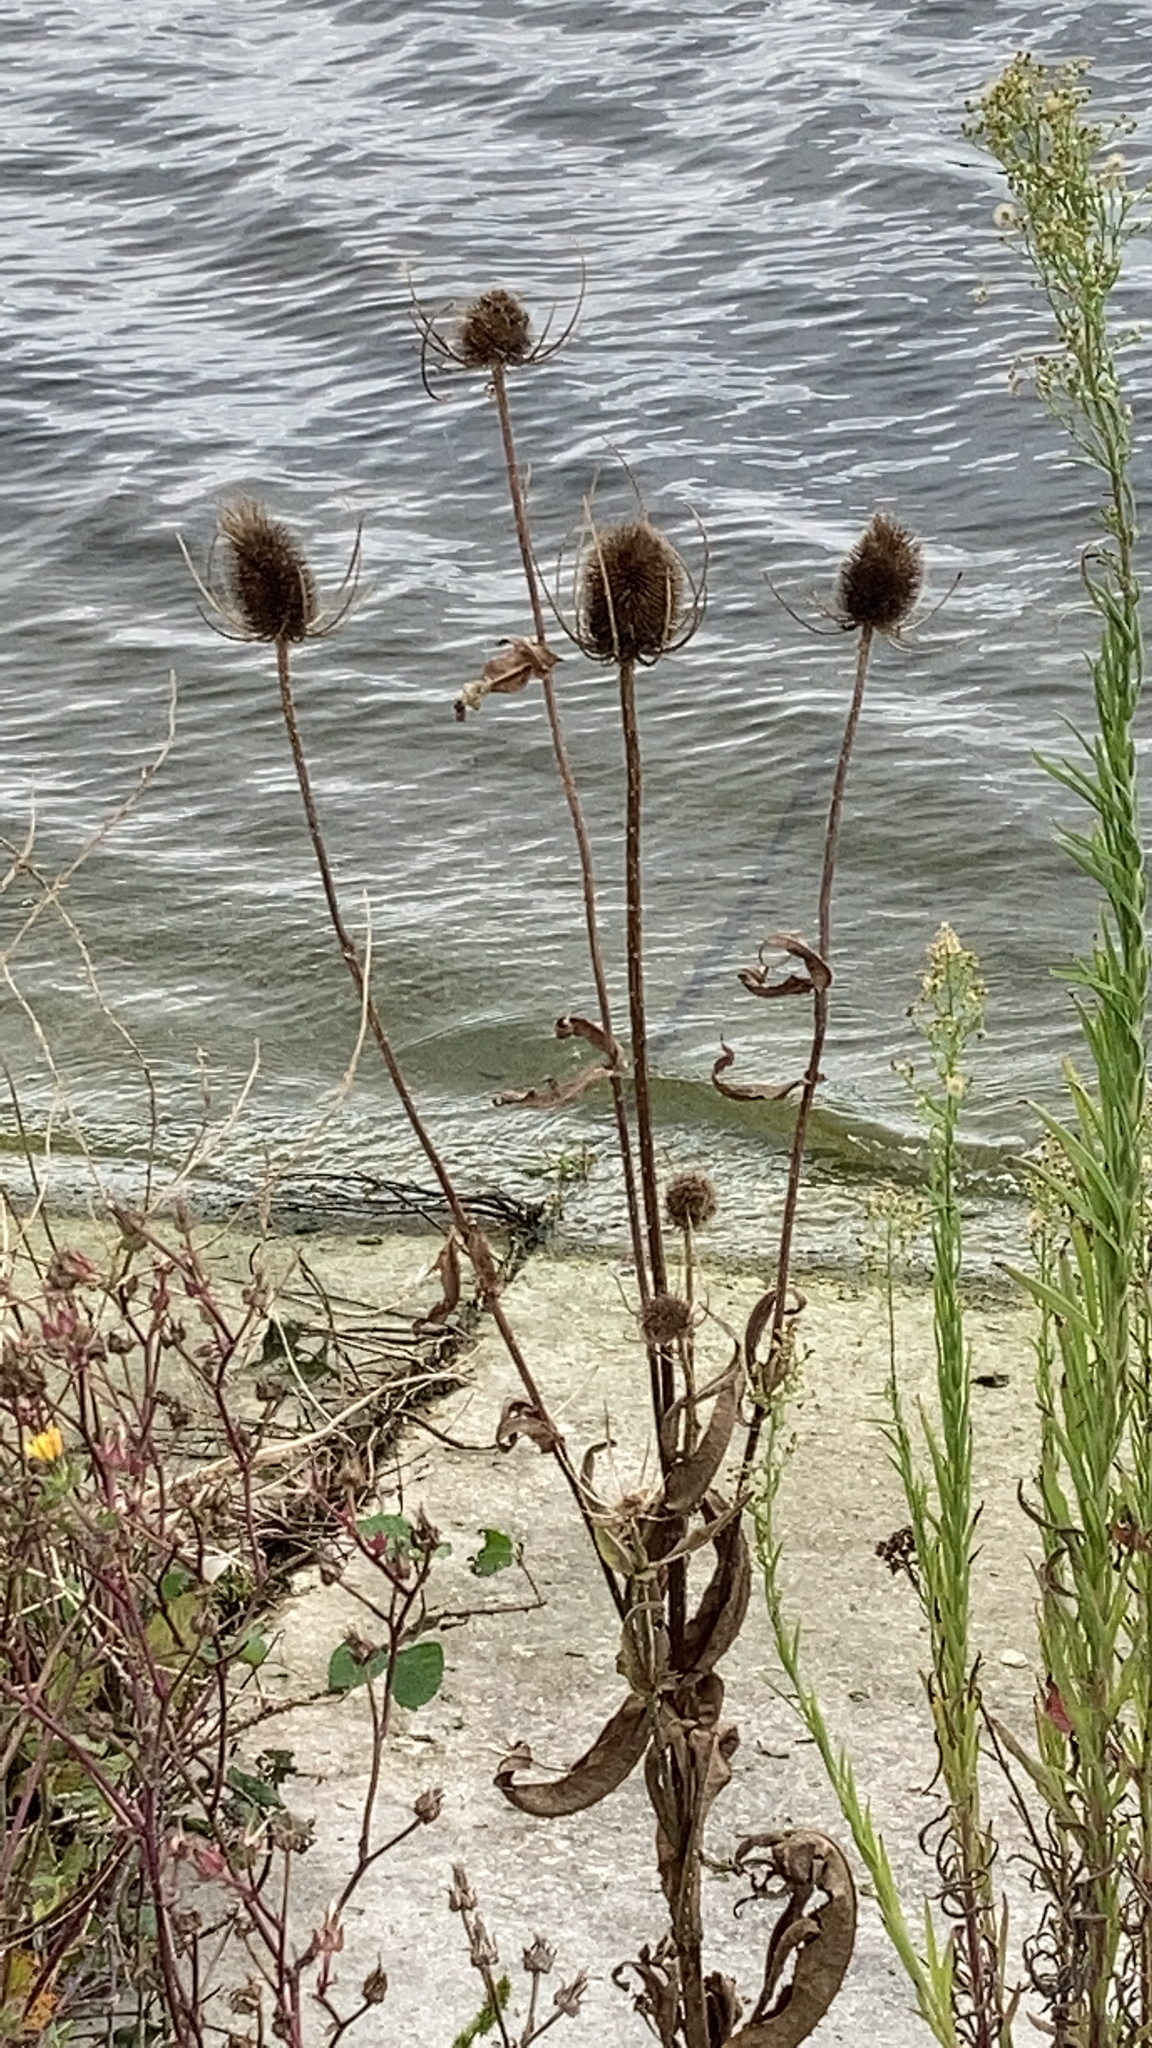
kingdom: Plantae
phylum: Tracheophyta
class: Magnoliopsida
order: Dipsacales
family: Caprifoliaceae
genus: Dipsacus
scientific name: Dipsacus fullonum
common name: Teasel
